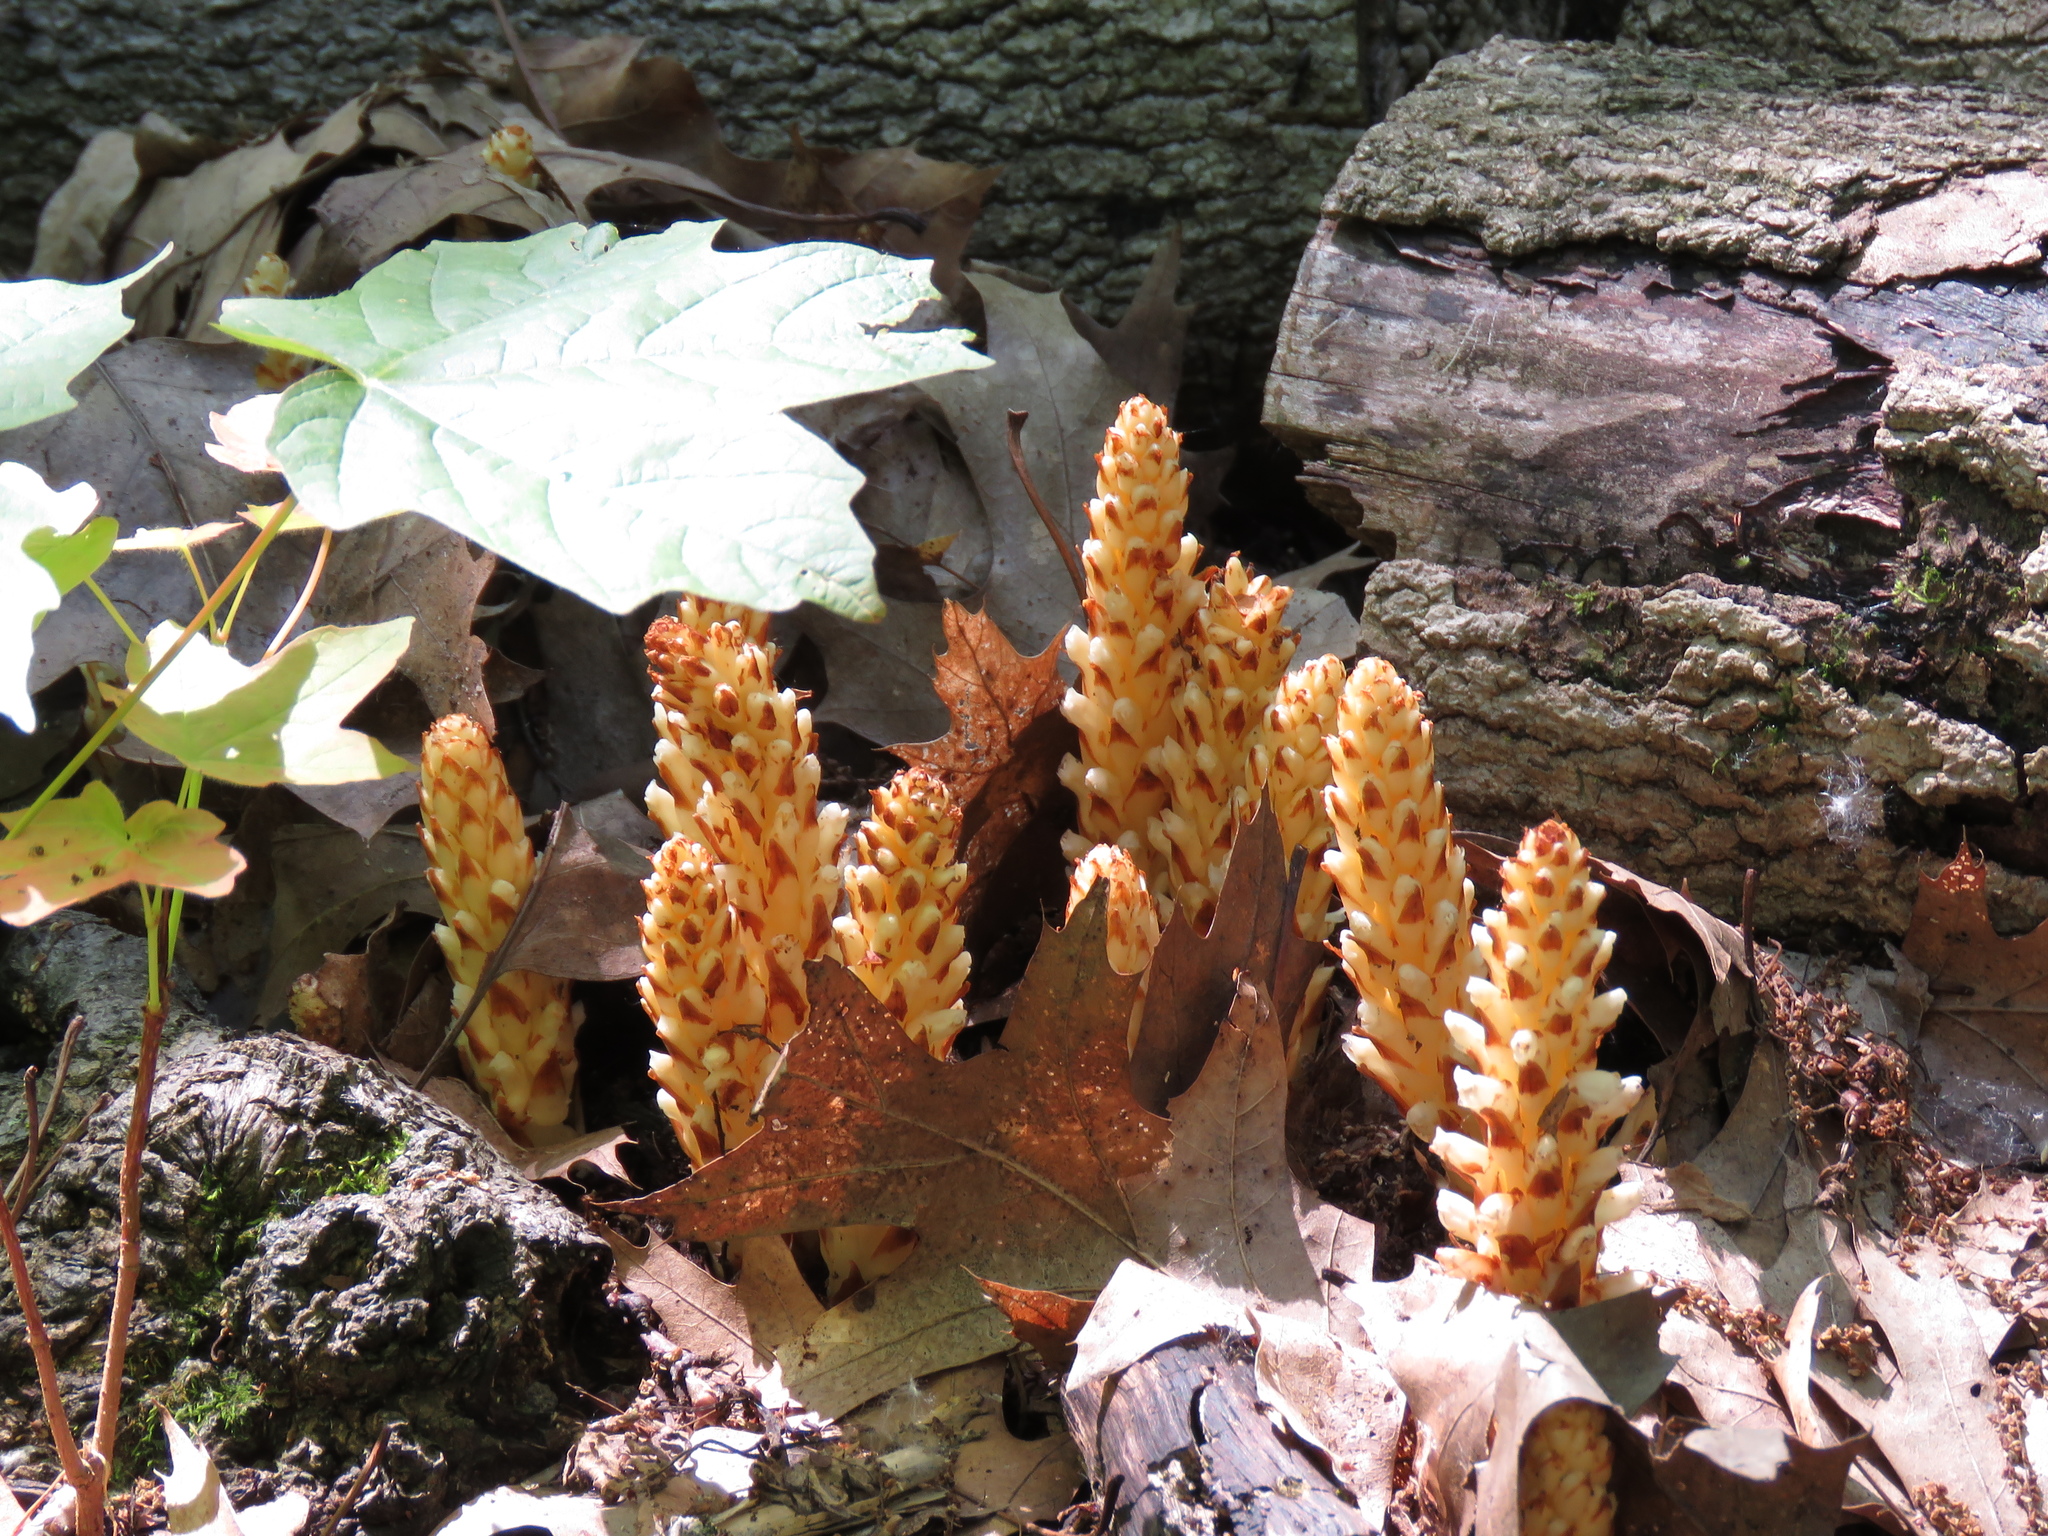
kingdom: Plantae
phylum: Tracheophyta
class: Magnoliopsida
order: Lamiales
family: Orobanchaceae
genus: Conopholis
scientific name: Conopholis americana
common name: American cancer-root
